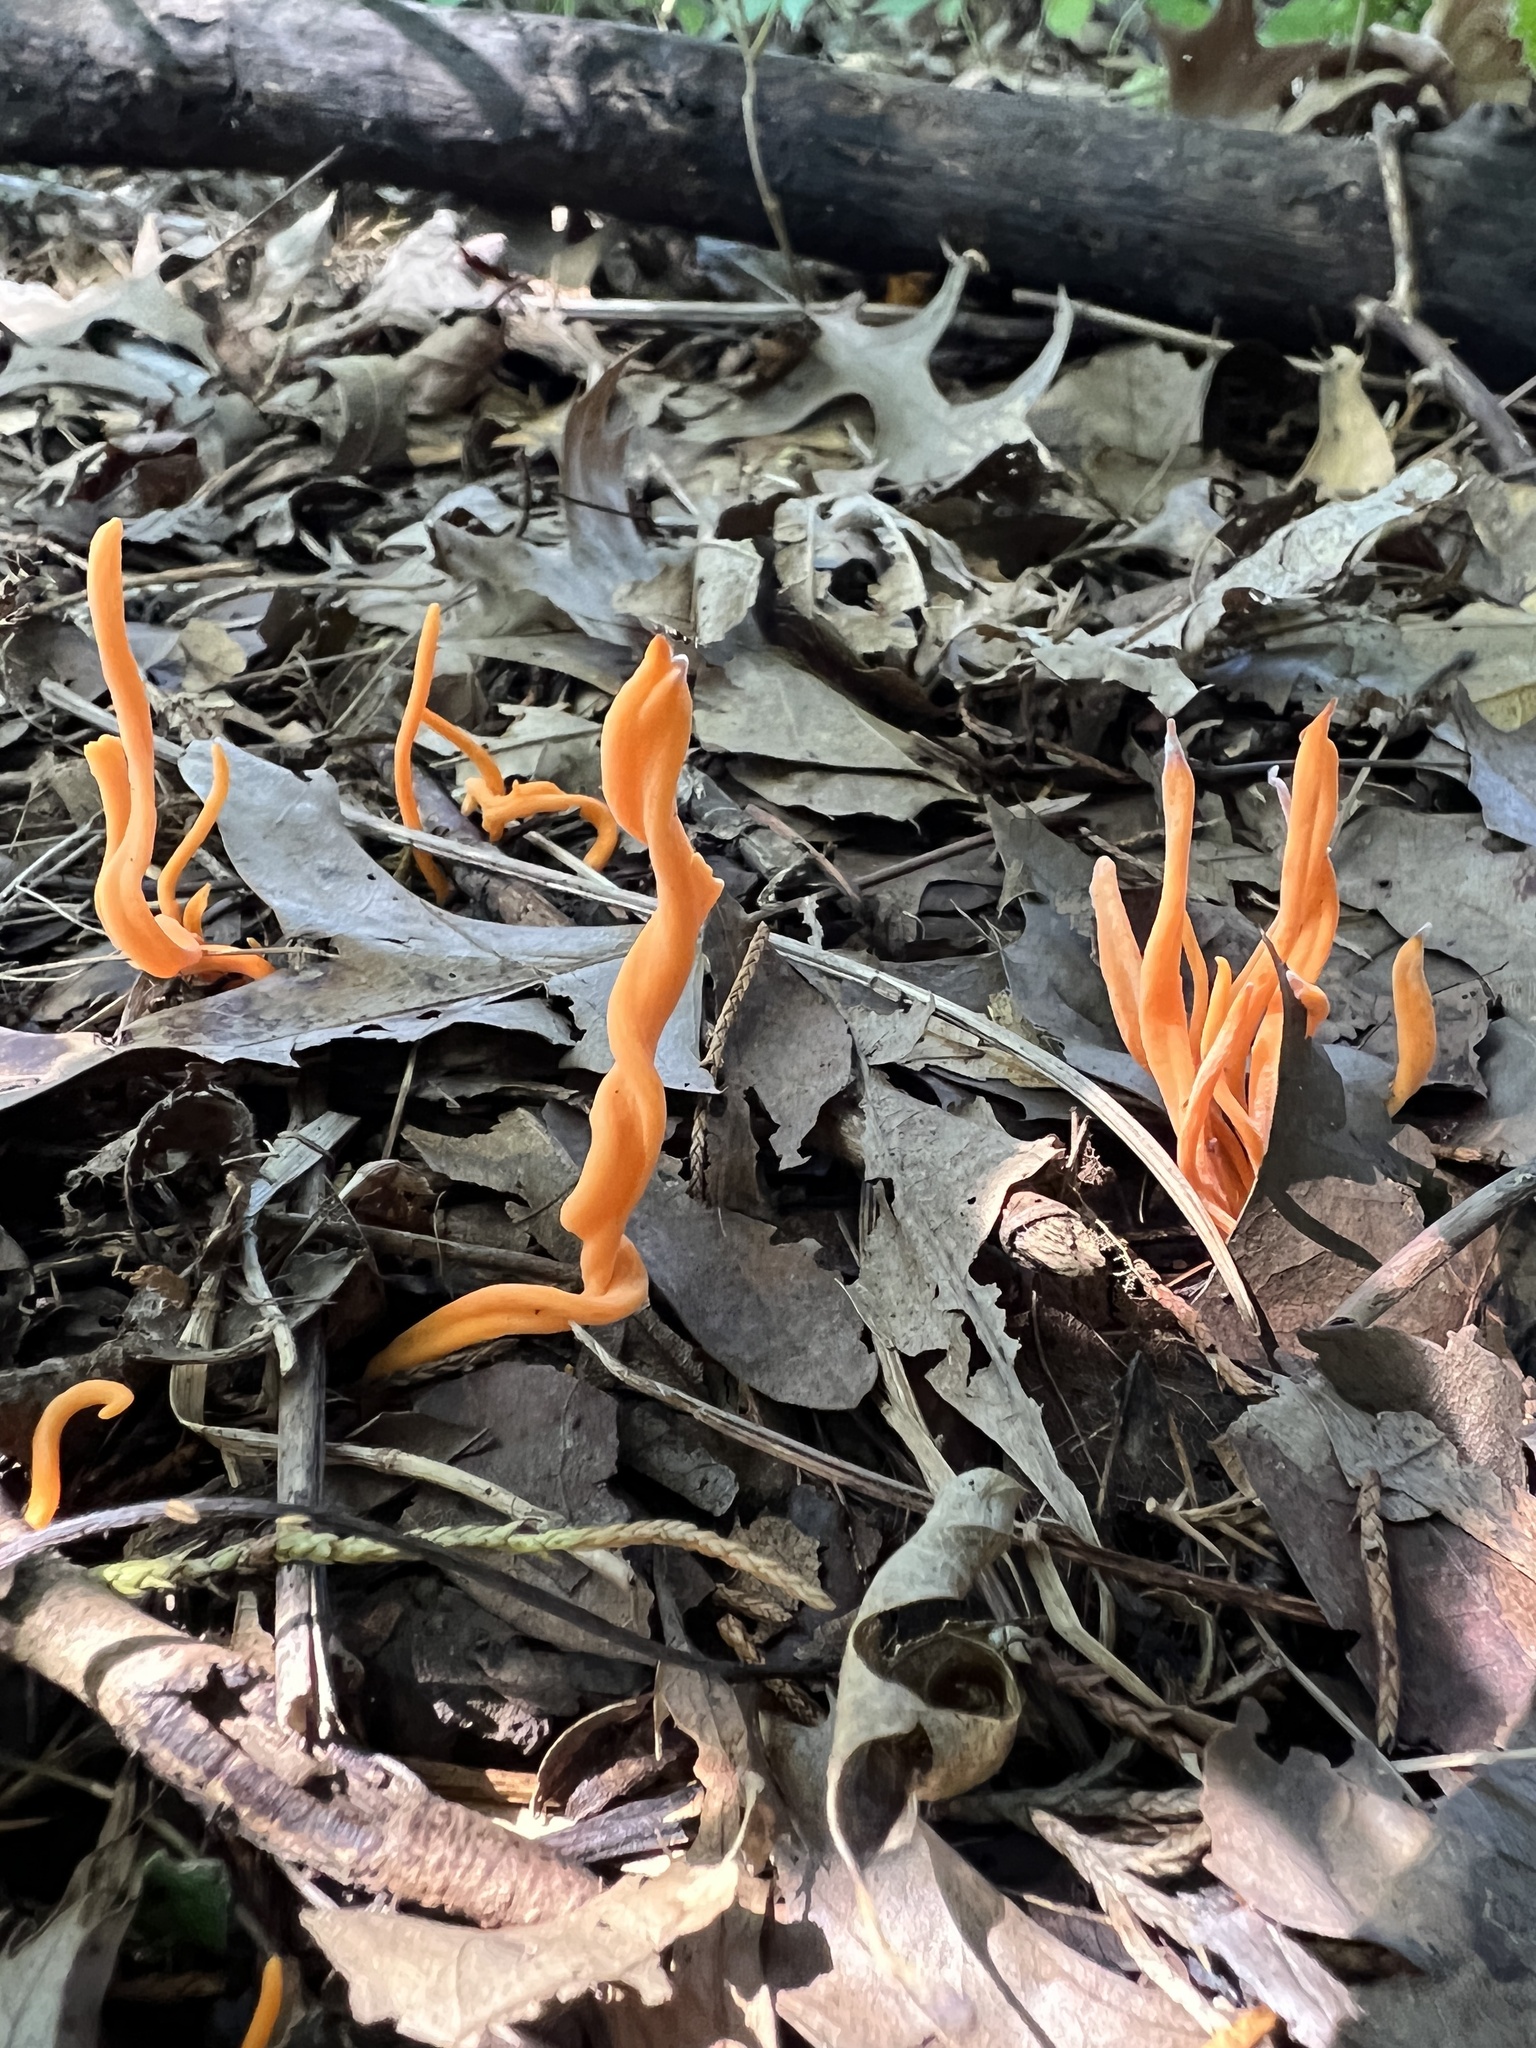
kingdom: Fungi
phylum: Basidiomycota
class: Agaricomycetes
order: Agaricales
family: Clavariaceae
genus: Clavulinopsis
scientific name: Clavulinopsis aurantiocinnabarina
